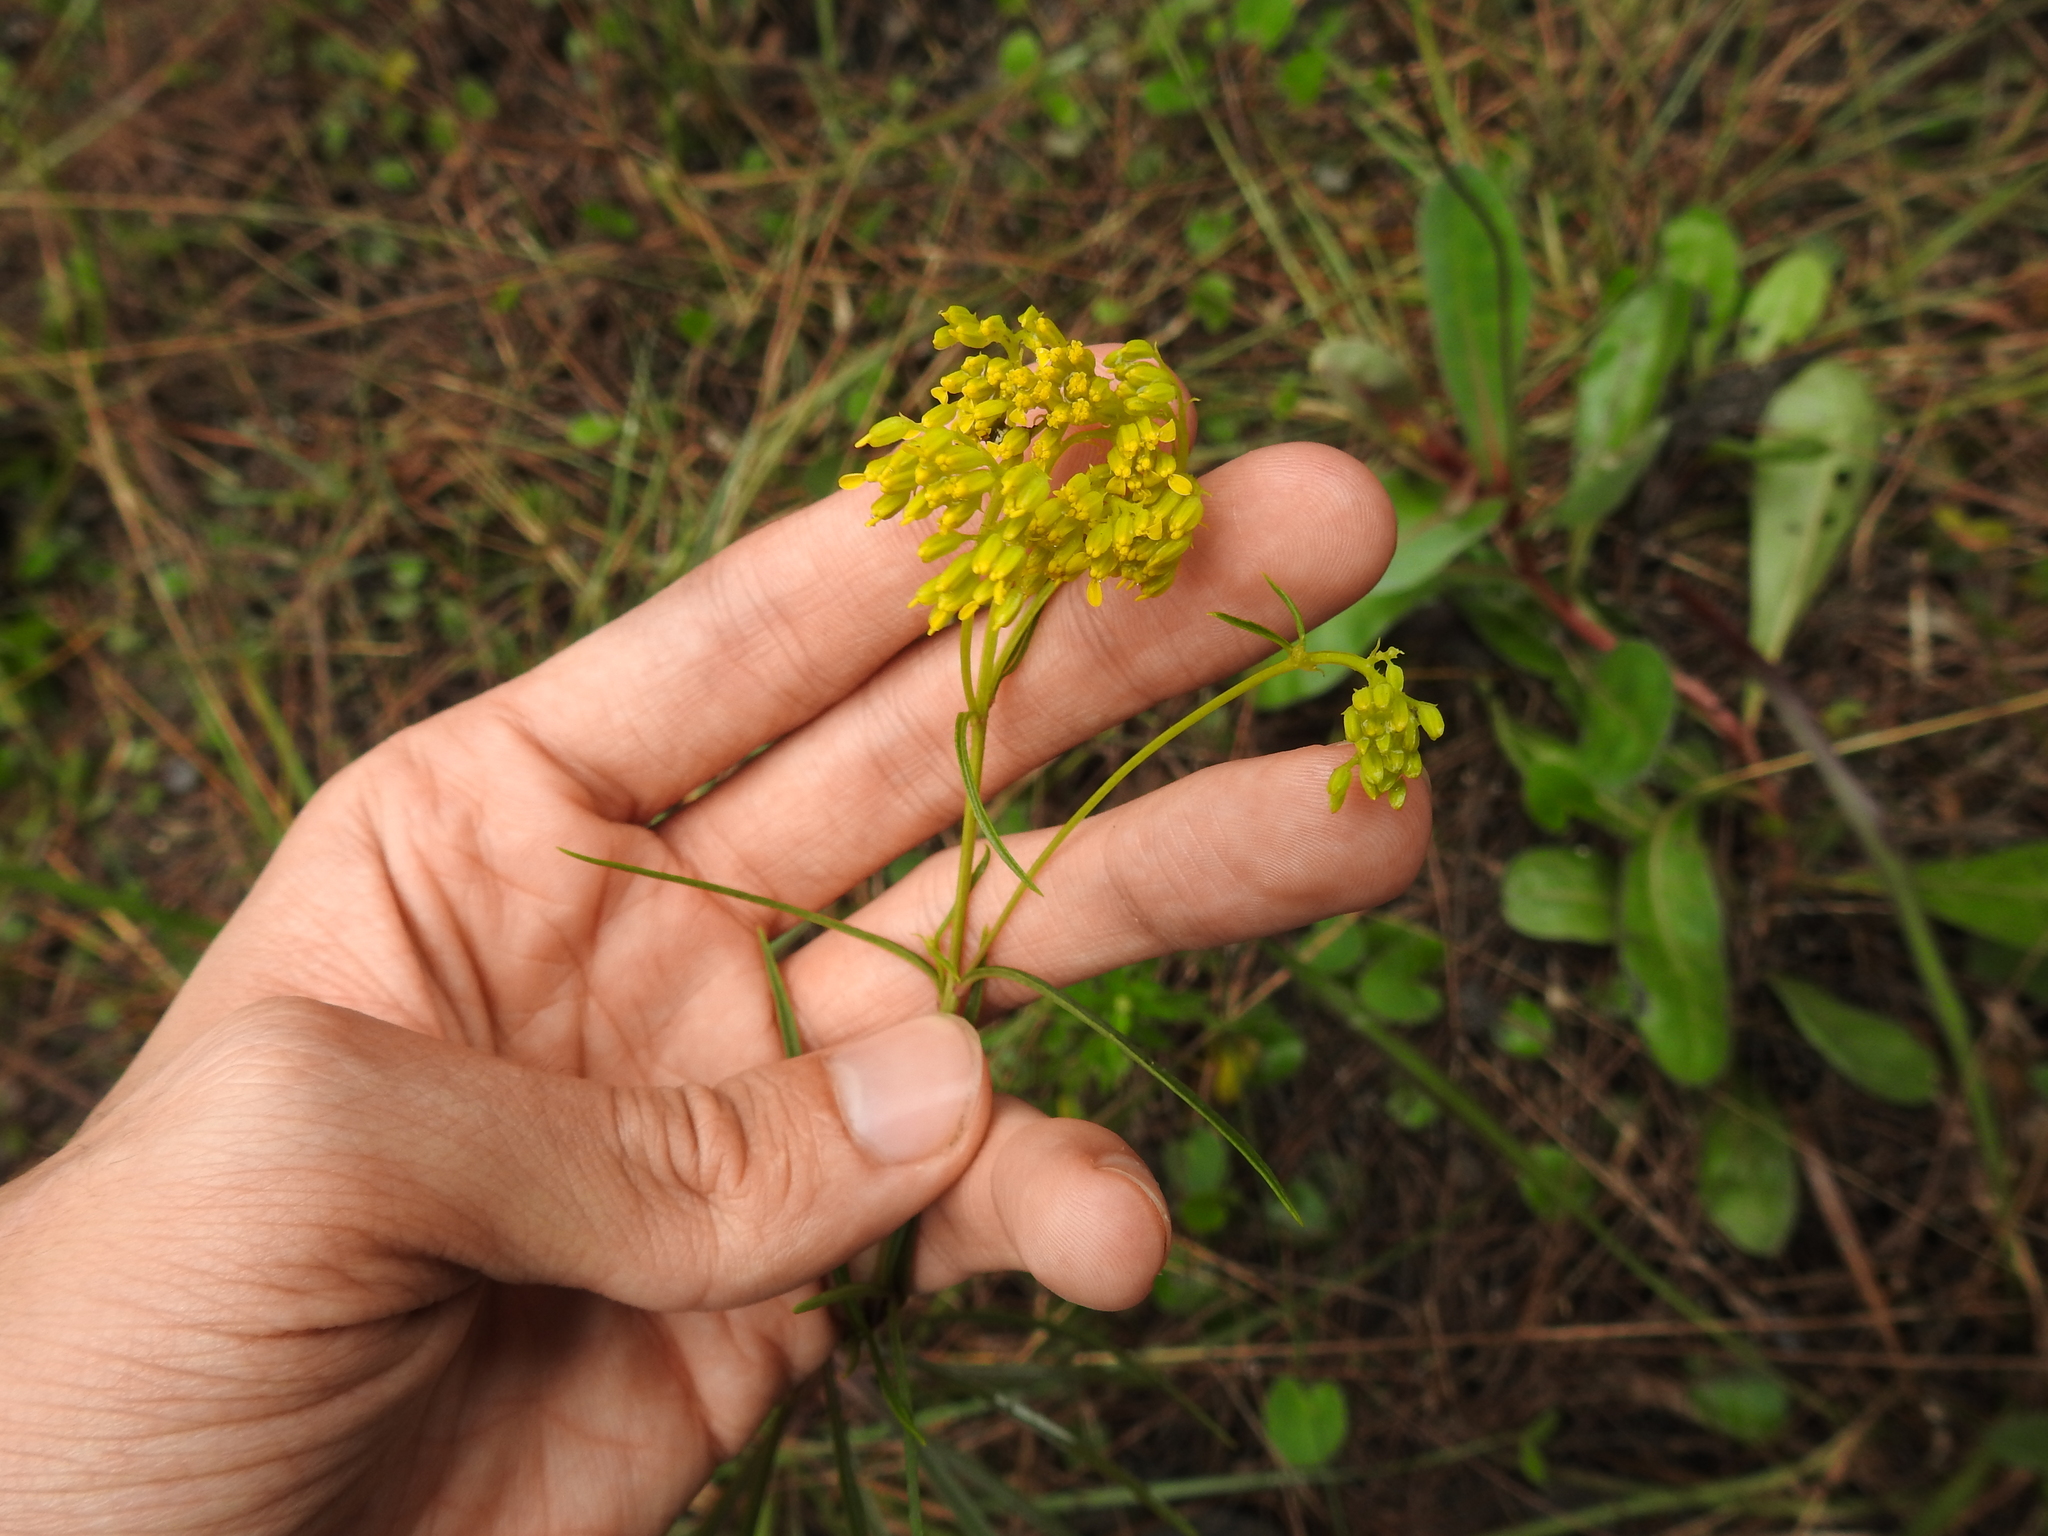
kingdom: Plantae
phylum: Tracheophyta
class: Magnoliopsida
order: Asterales
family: Asteraceae
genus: Flaveria
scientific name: Flaveria linearis
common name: Yellowtop
